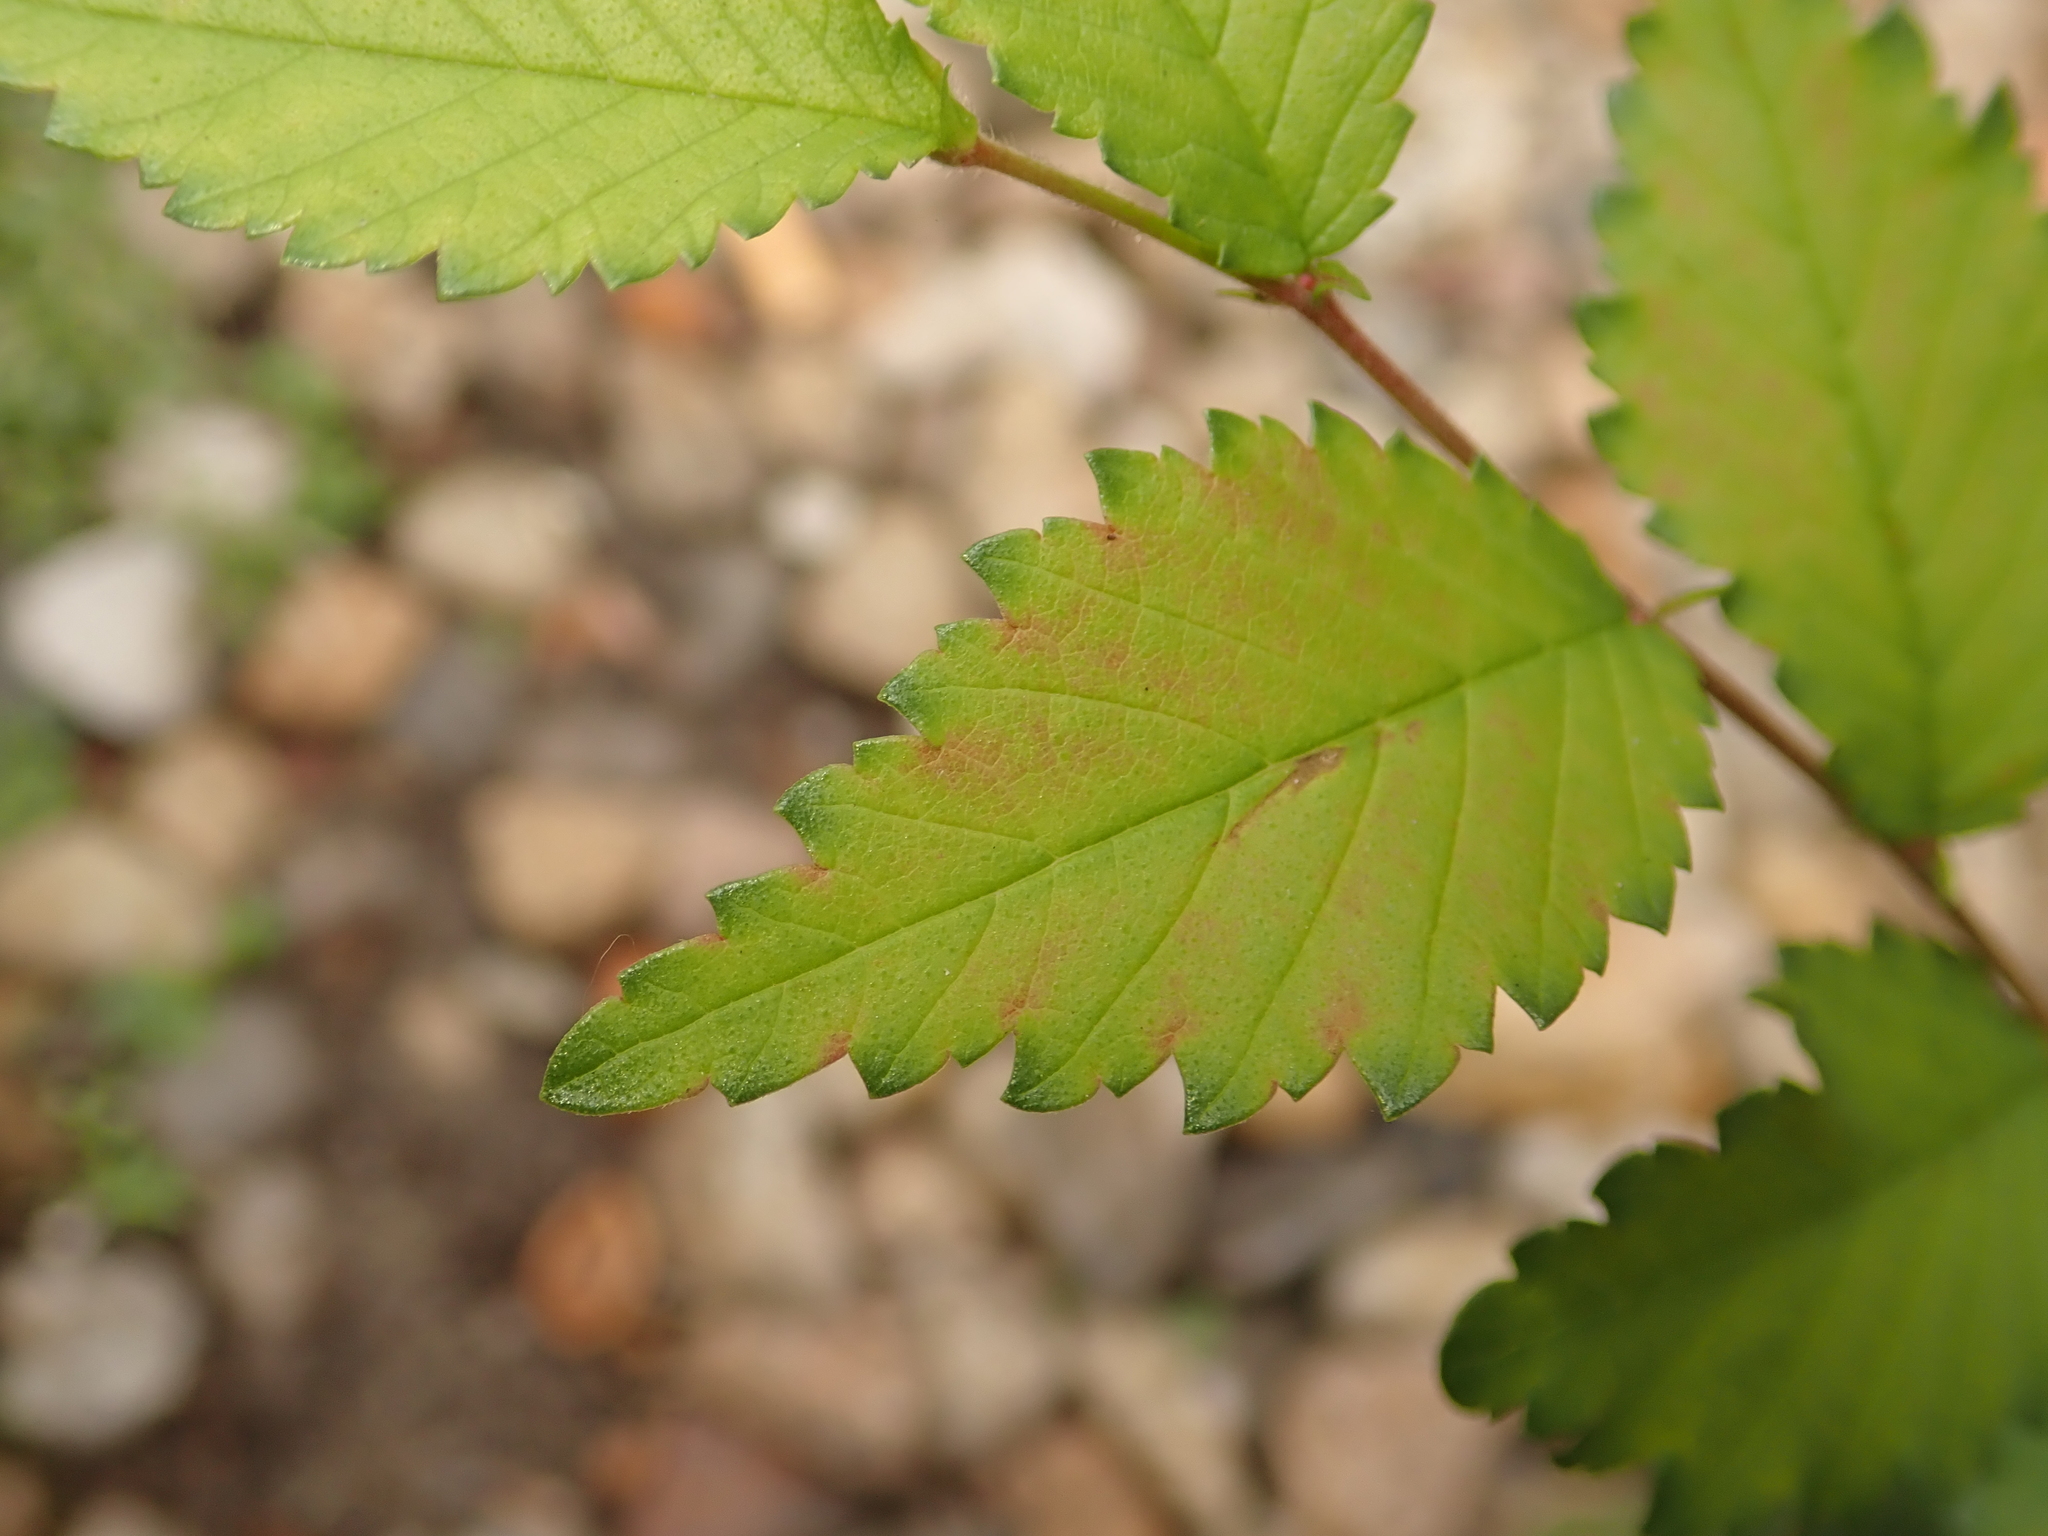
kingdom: Plantae
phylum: Tracheophyta
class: Magnoliopsida
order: Rosales
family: Ulmaceae
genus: Ulmus
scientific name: Ulmus minor
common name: Small-leaved elm
